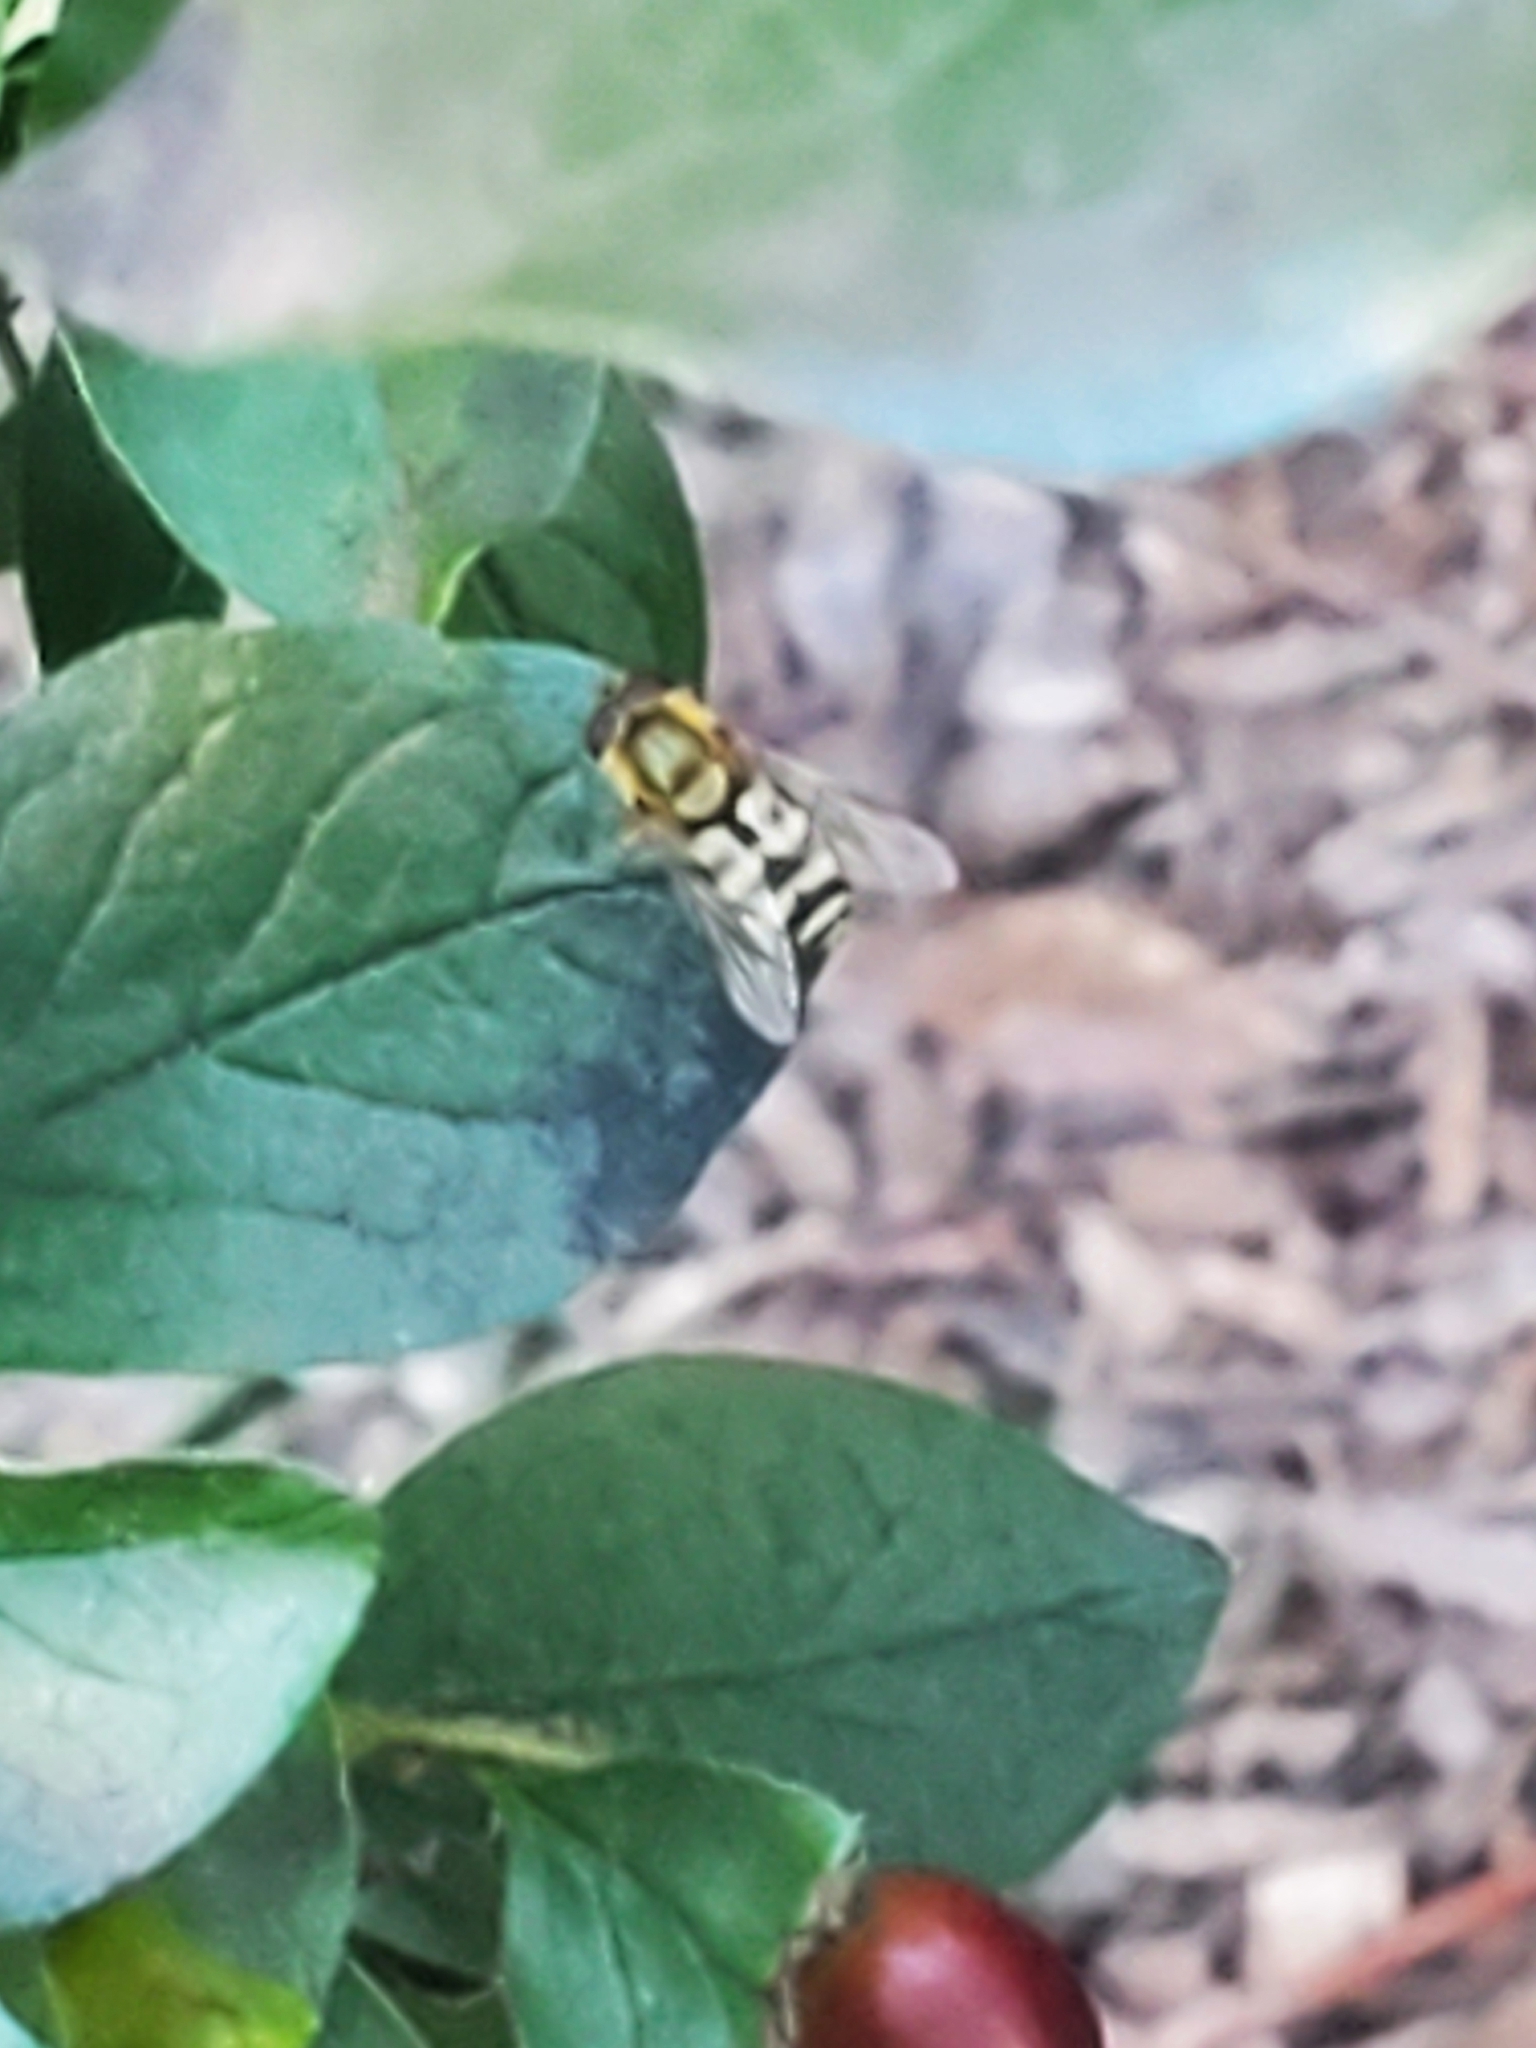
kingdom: Animalia
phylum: Arthropoda
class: Insecta
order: Diptera
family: Syrphidae
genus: Syrphus
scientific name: Syrphus
